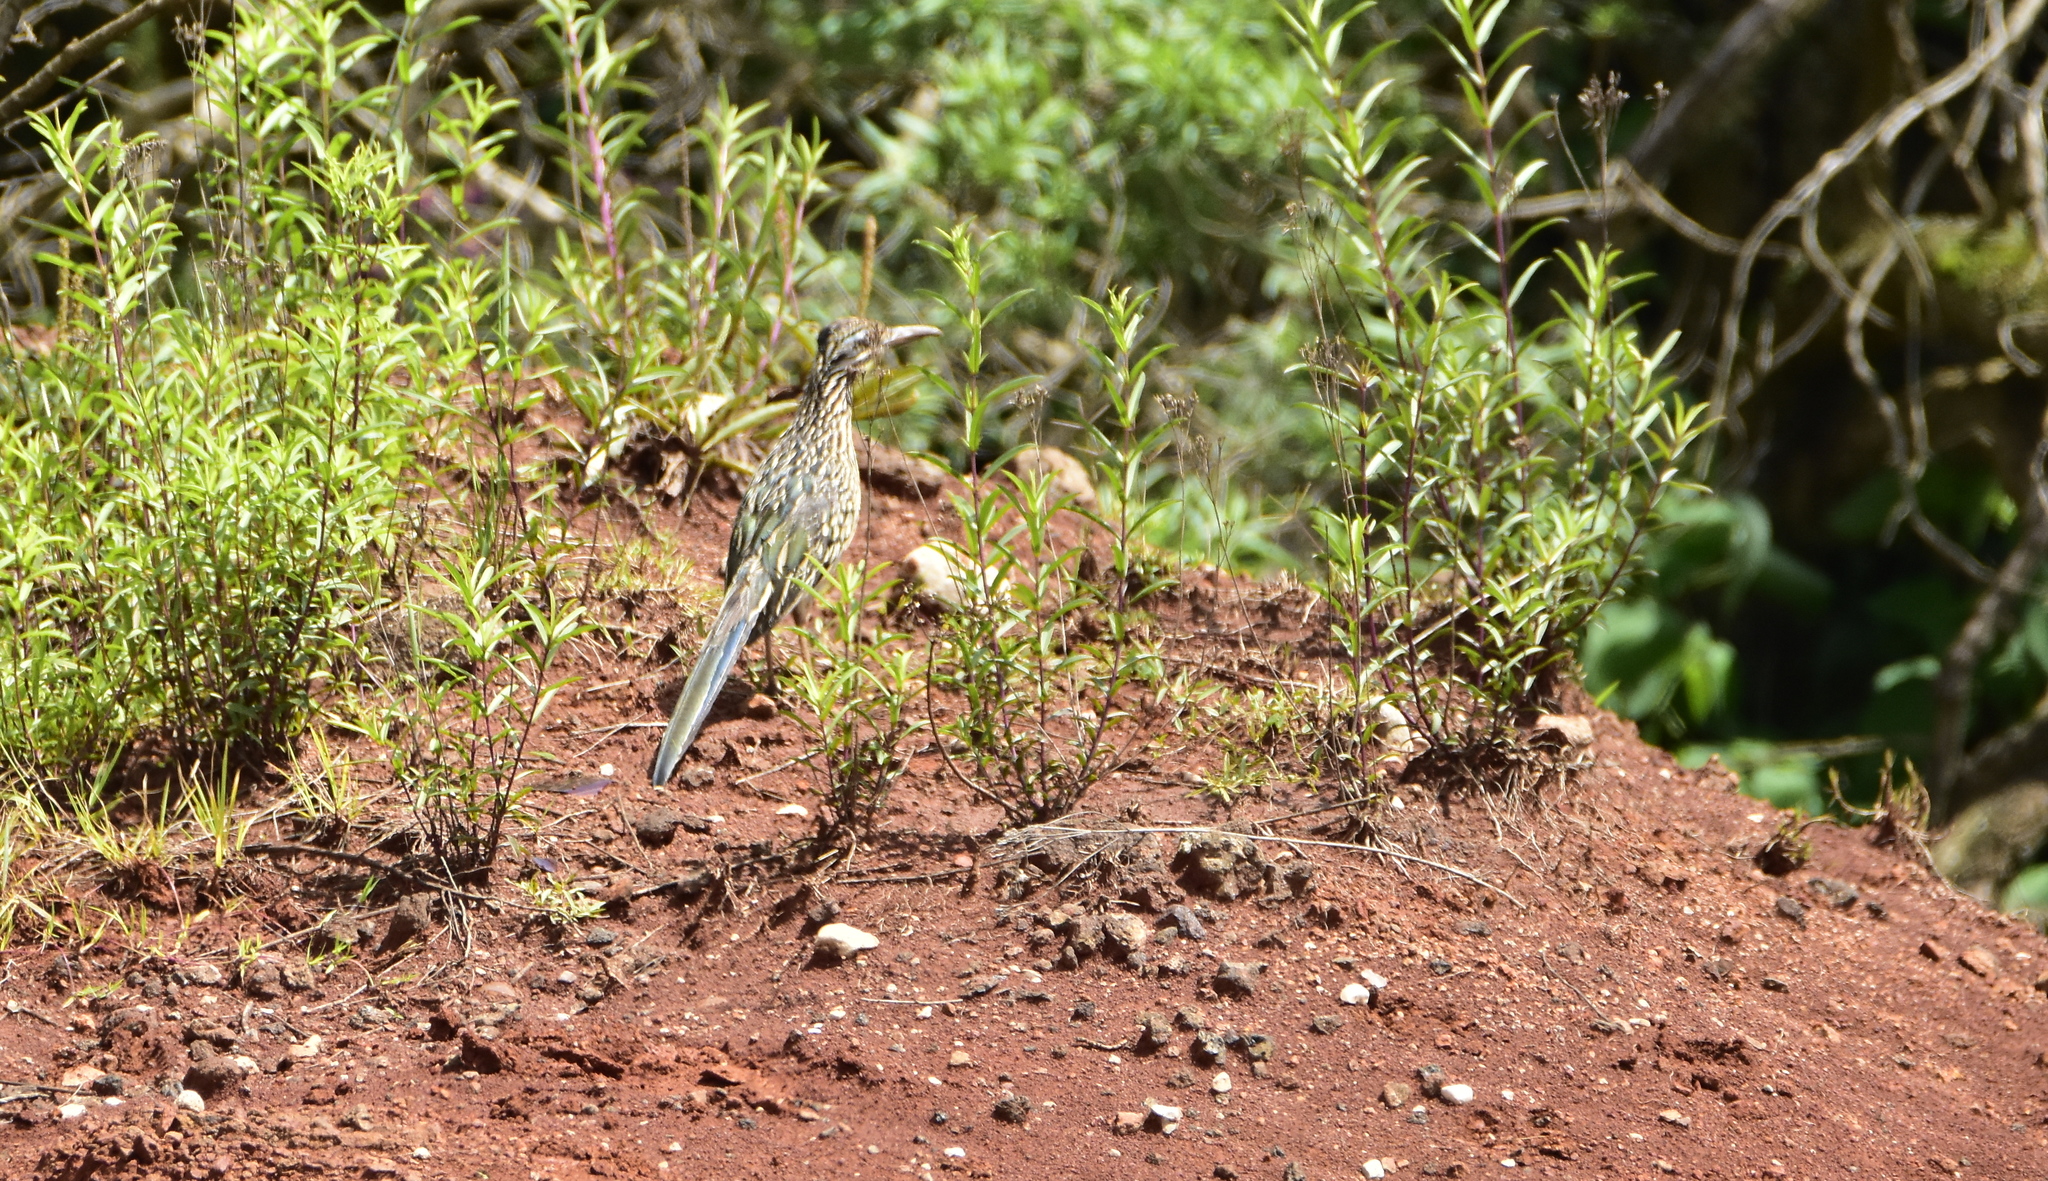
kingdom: Animalia
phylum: Chordata
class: Aves
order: Cuculiformes
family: Cuculidae
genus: Geococcyx
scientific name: Geococcyx californianus
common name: Greater roadrunner
